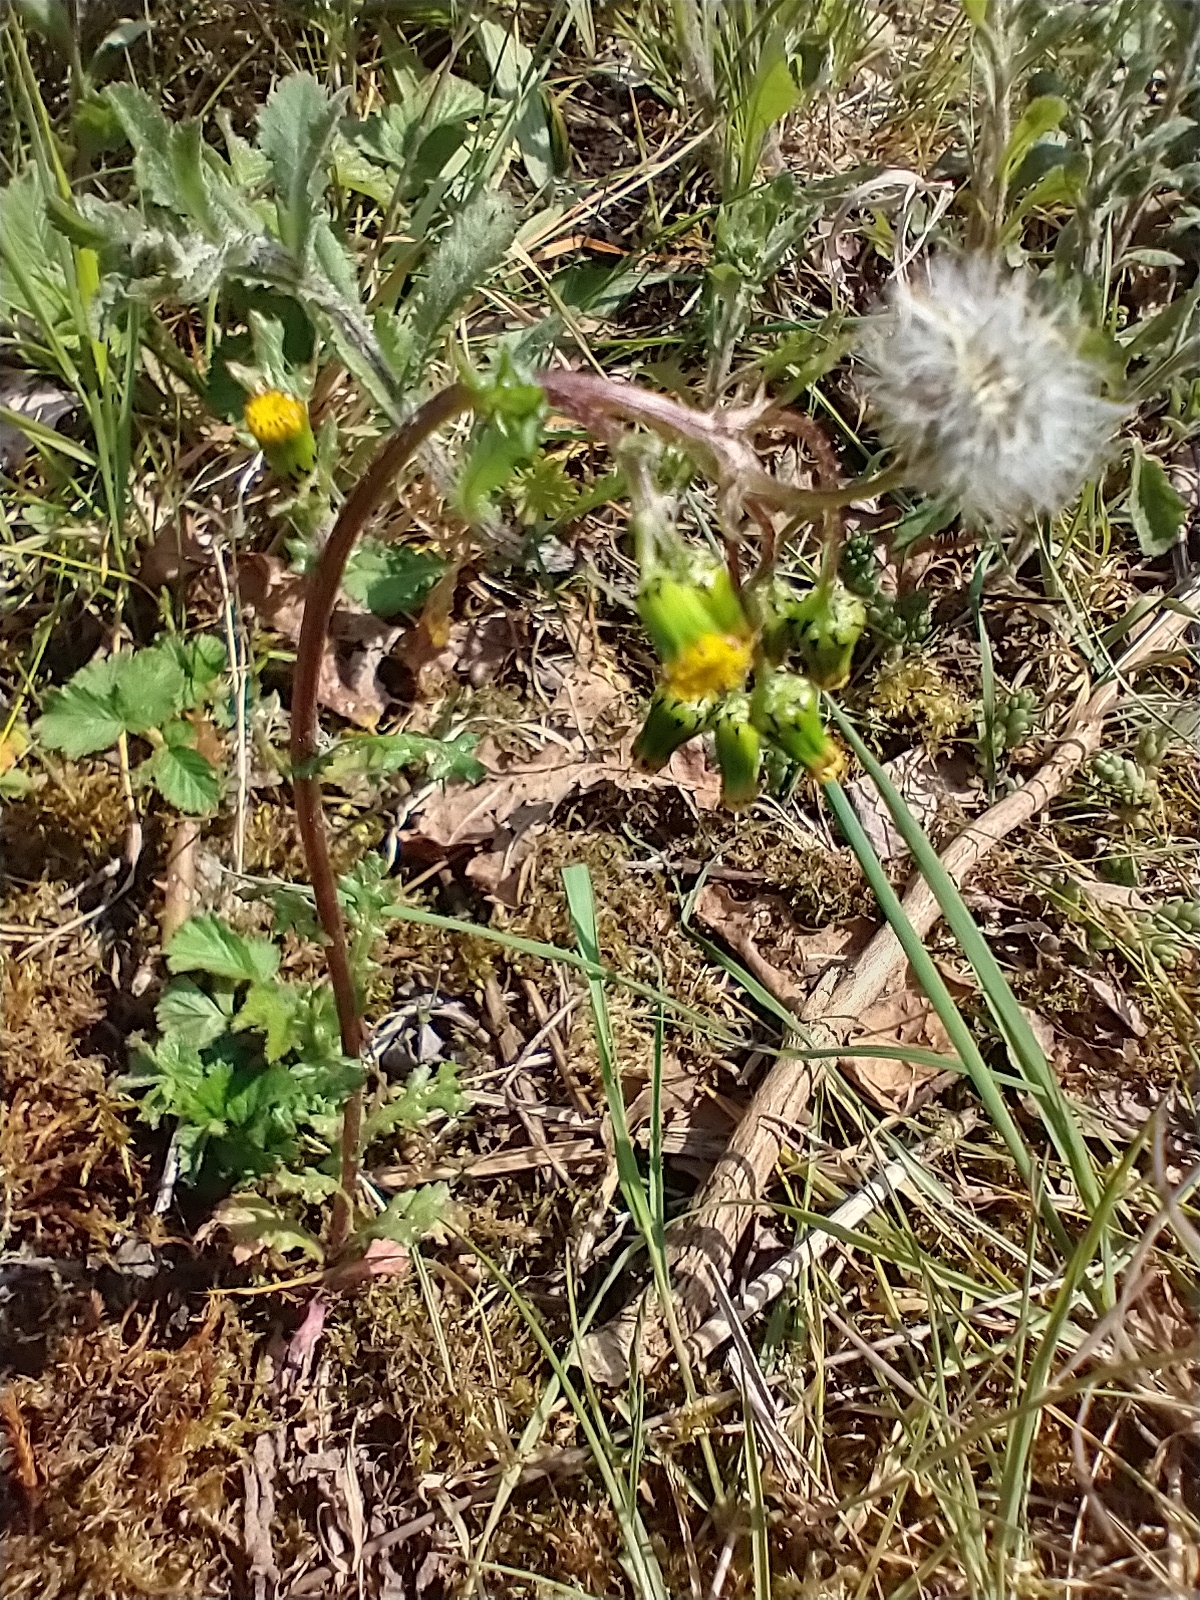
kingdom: Plantae
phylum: Tracheophyta
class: Magnoliopsida
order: Asterales
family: Asteraceae
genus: Senecio
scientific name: Senecio vulgaris
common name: Old-man-in-the-spring
